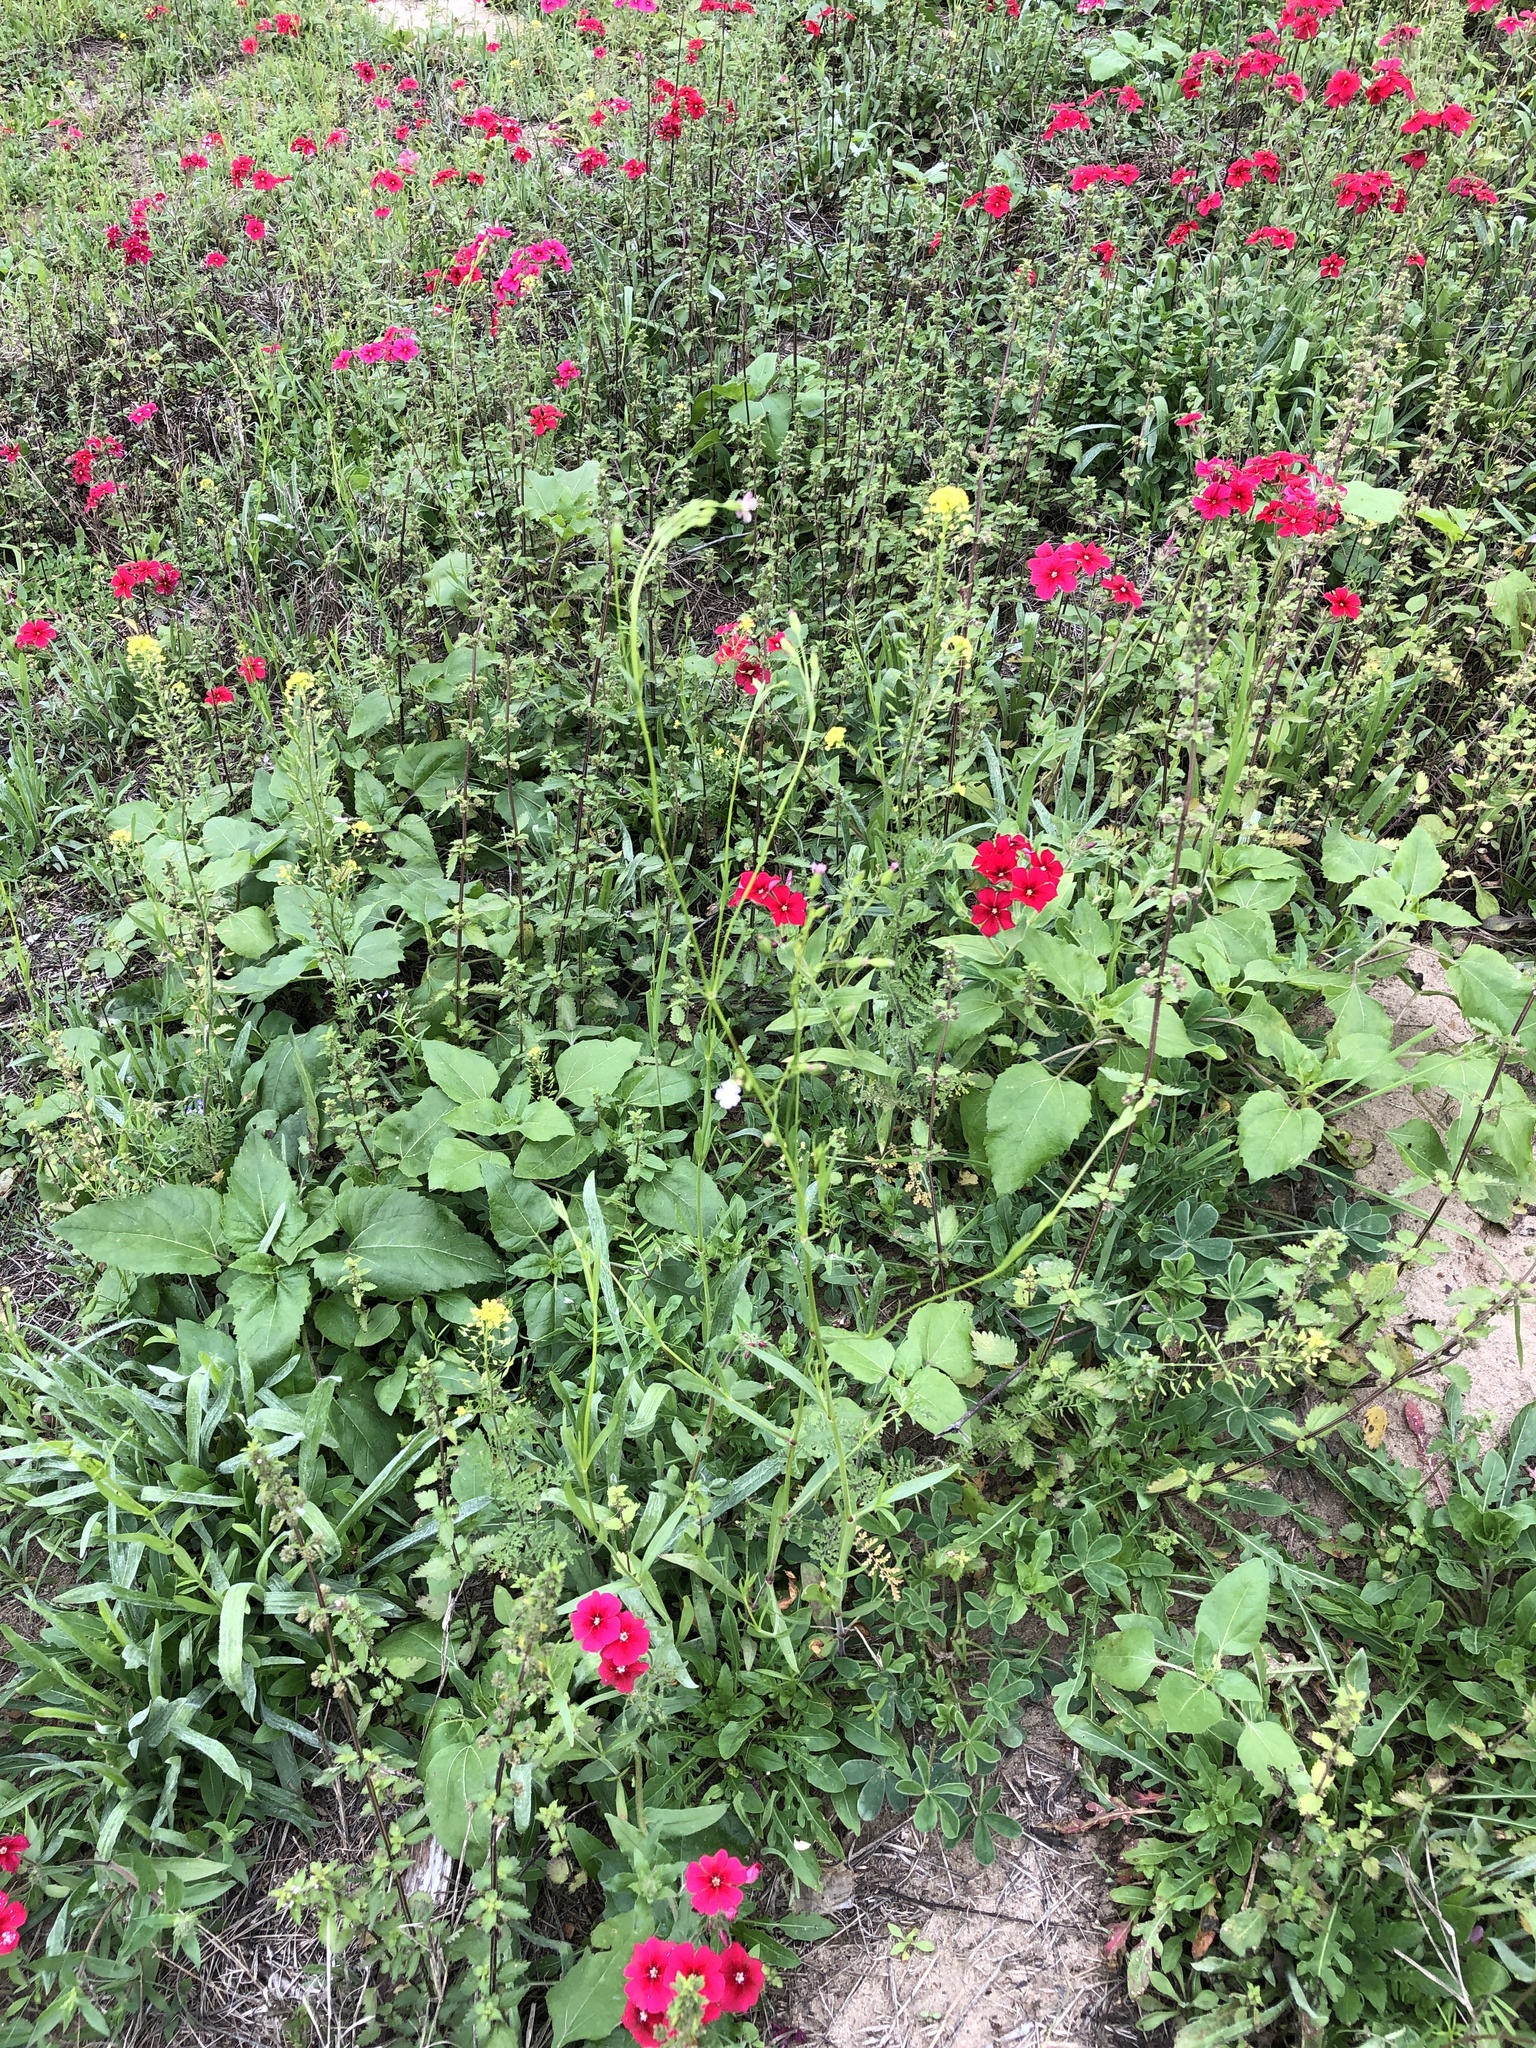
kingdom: Plantae
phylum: Tracheophyta
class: Magnoliopsida
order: Caryophyllales
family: Caryophyllaceae
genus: Silene
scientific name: Silene antirrhina
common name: Sleepy catchfly
